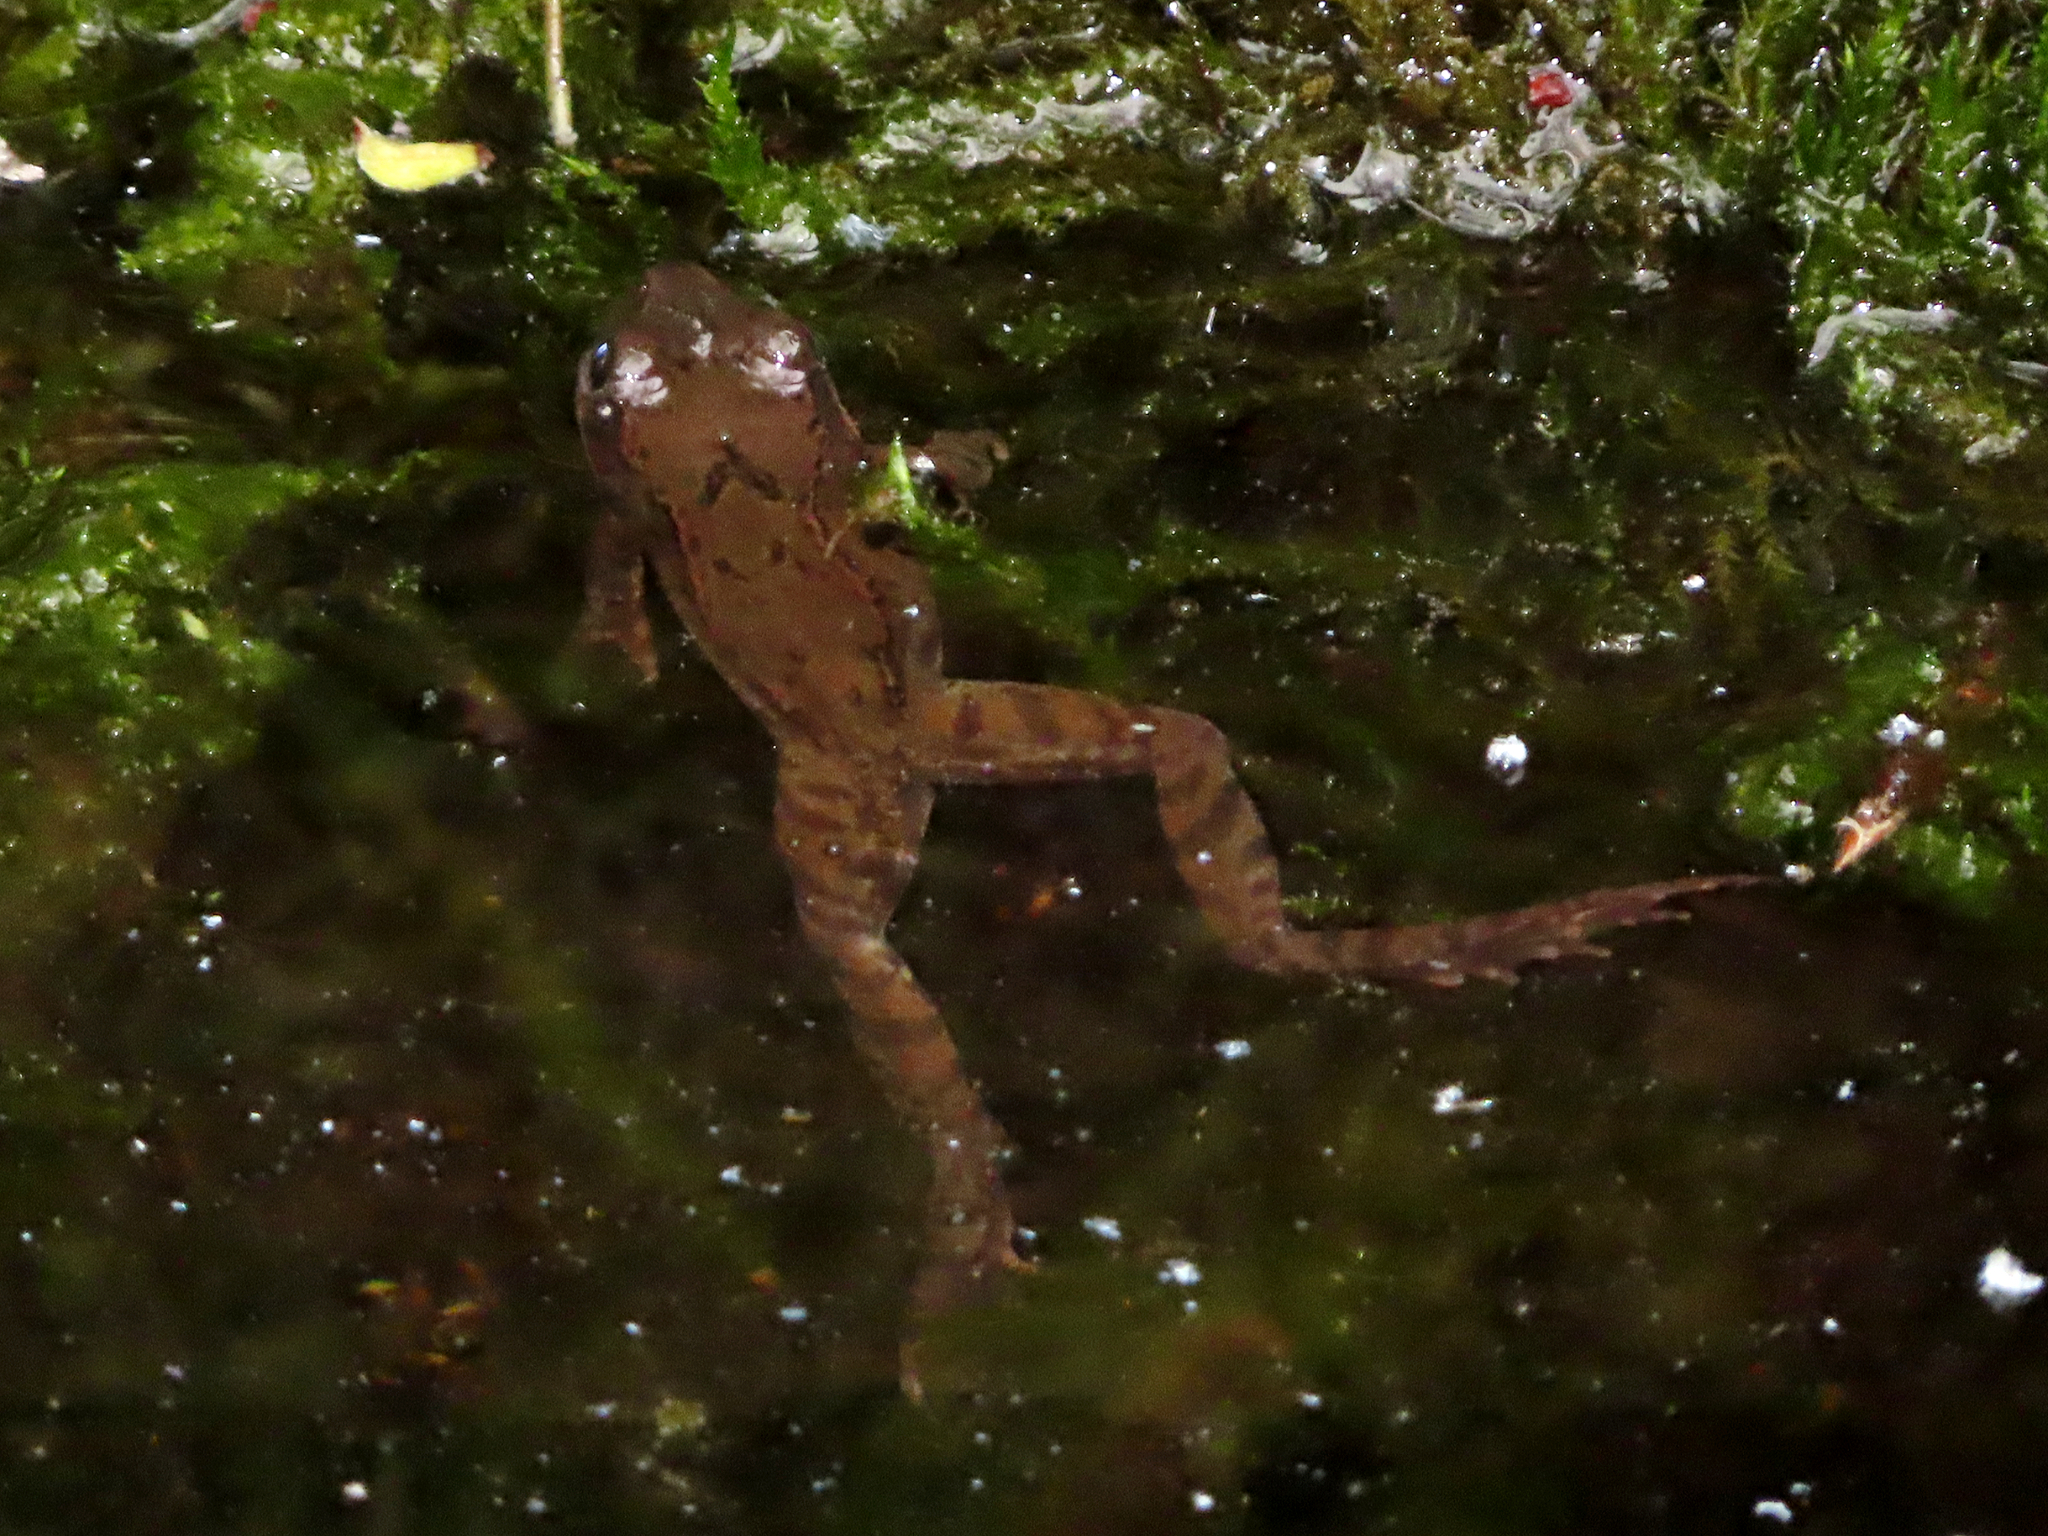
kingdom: Animalia
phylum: Chordata
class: Amphibia
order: Anura
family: Ranidae
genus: Rana
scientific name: Rana temporaria
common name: Common frog
